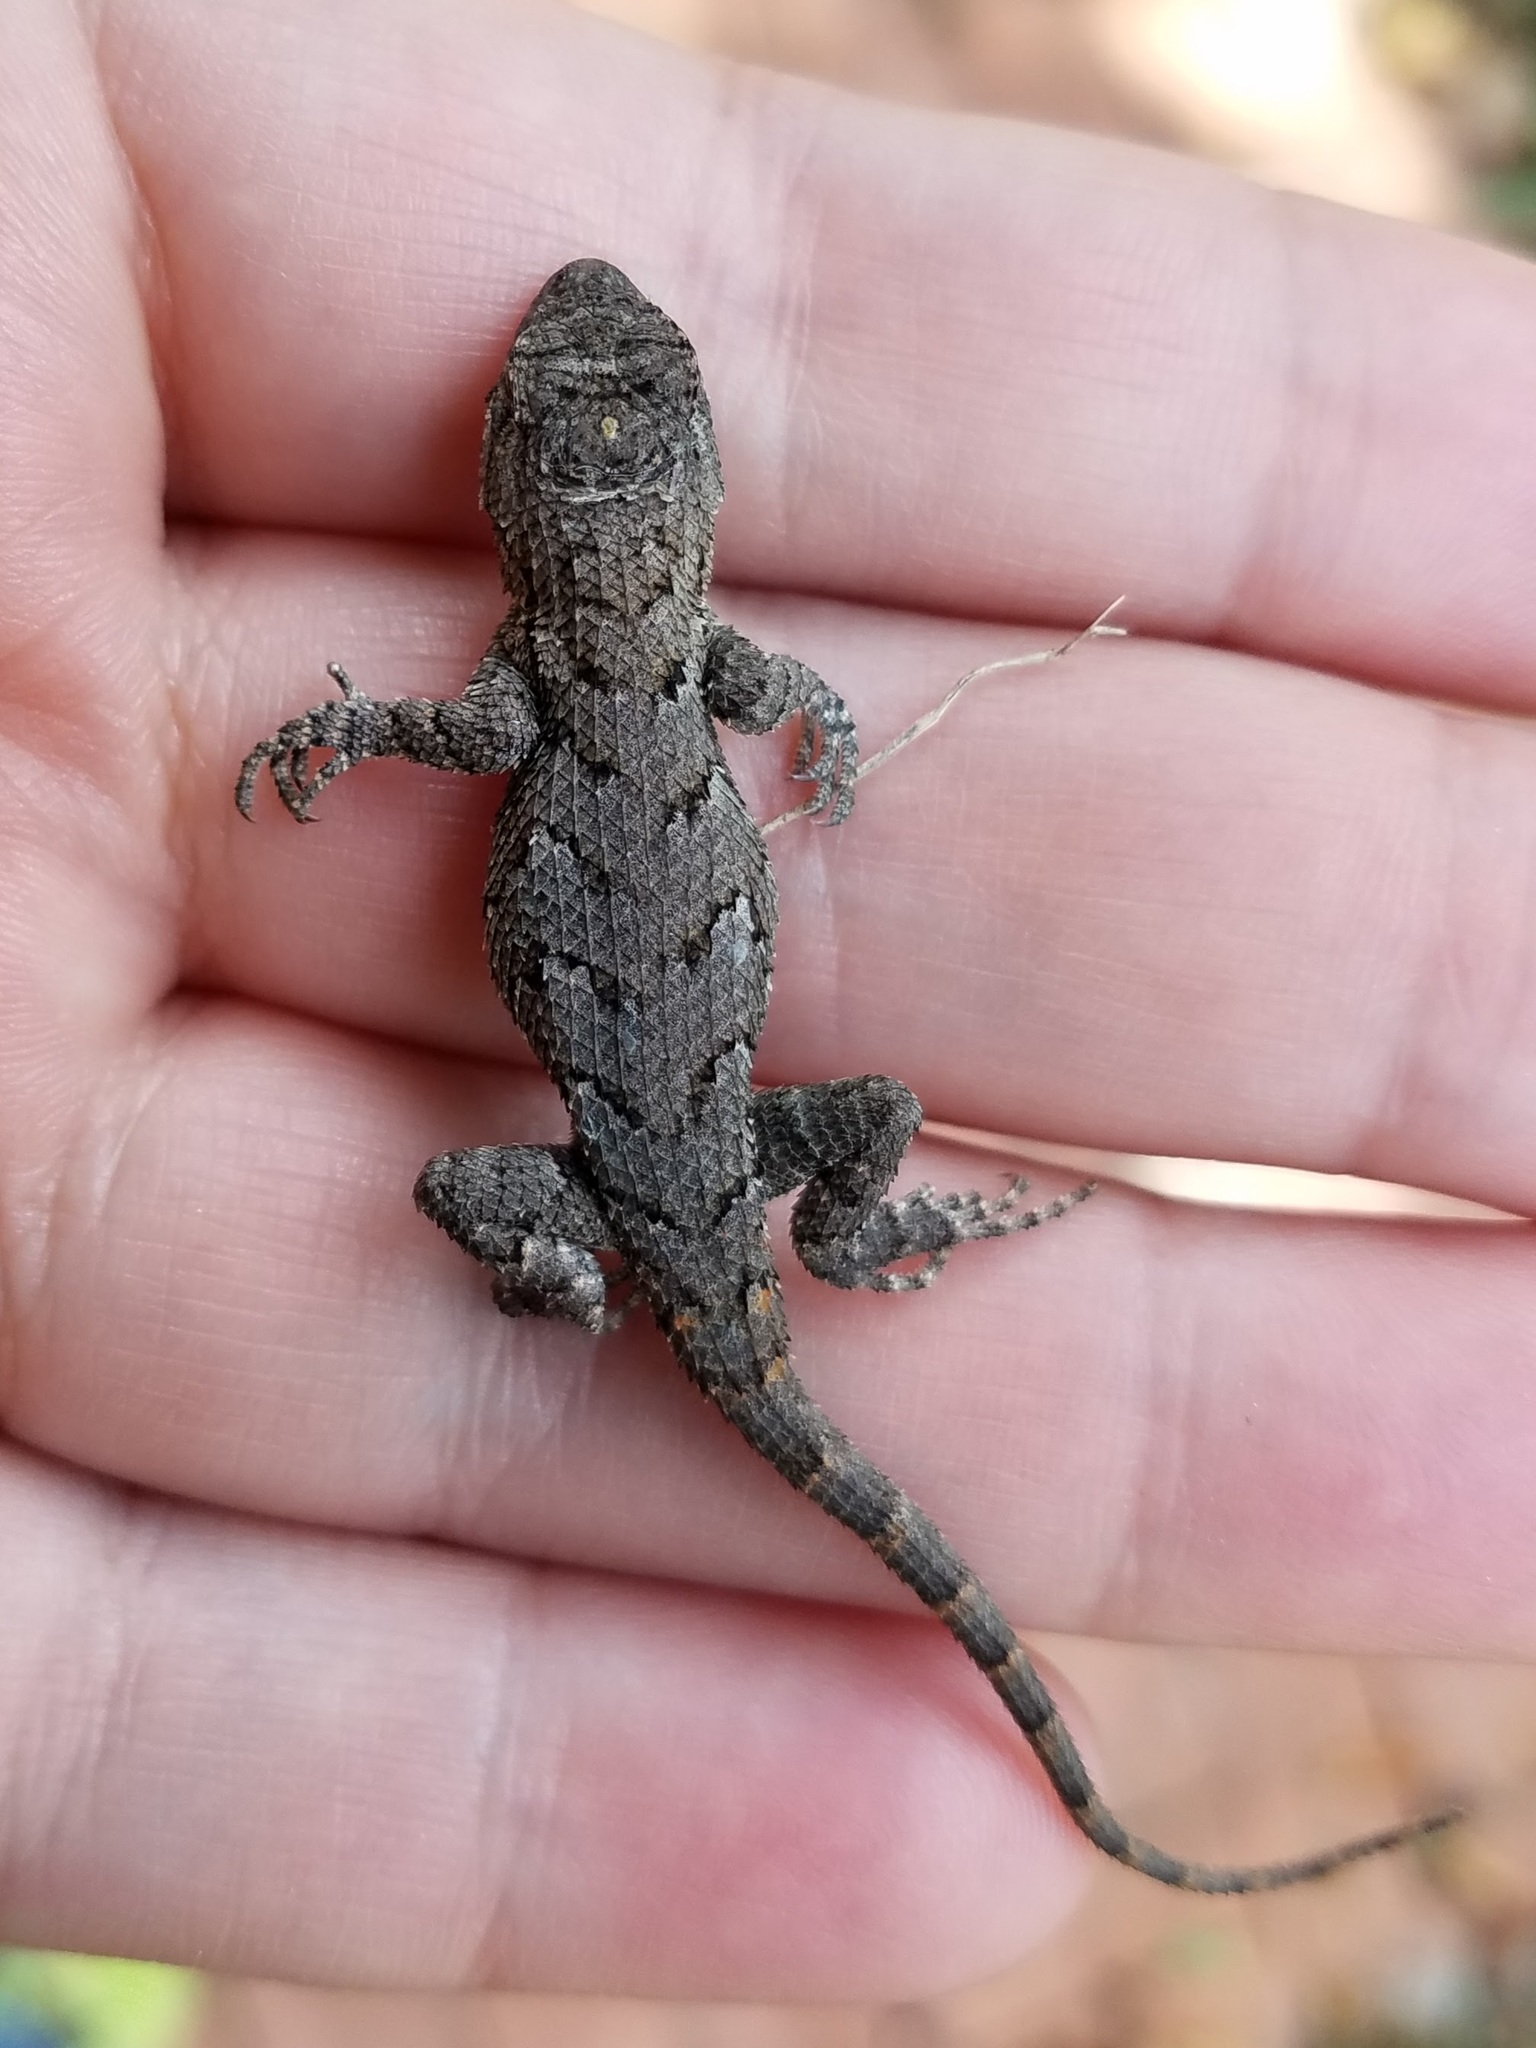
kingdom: Animalia
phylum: Chordata
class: Squamata
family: Phrynosomatidae
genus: Sceloporus
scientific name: Sceloporus undulatus
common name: Eastern fence lizard
